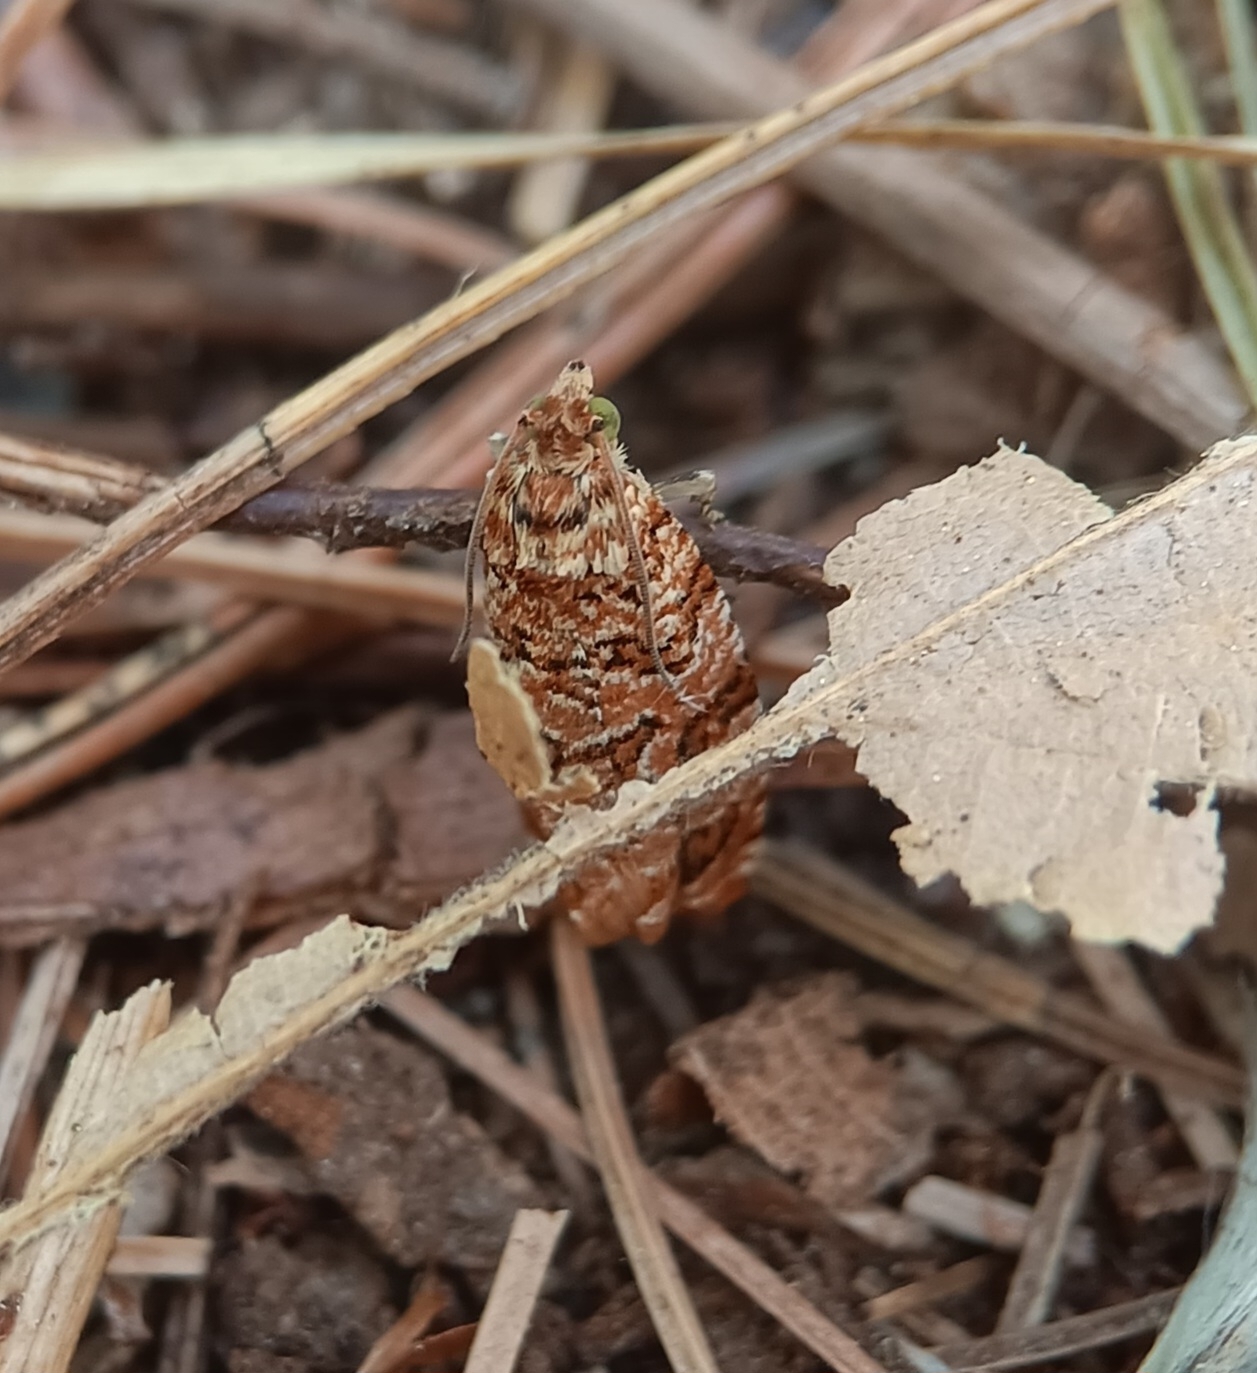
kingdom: Animalia
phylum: Arthropoda
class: Insecta
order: Lepidoptera
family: Tortricidae
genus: Phaecasiophora
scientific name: Phaecasiophora niveiguttana
